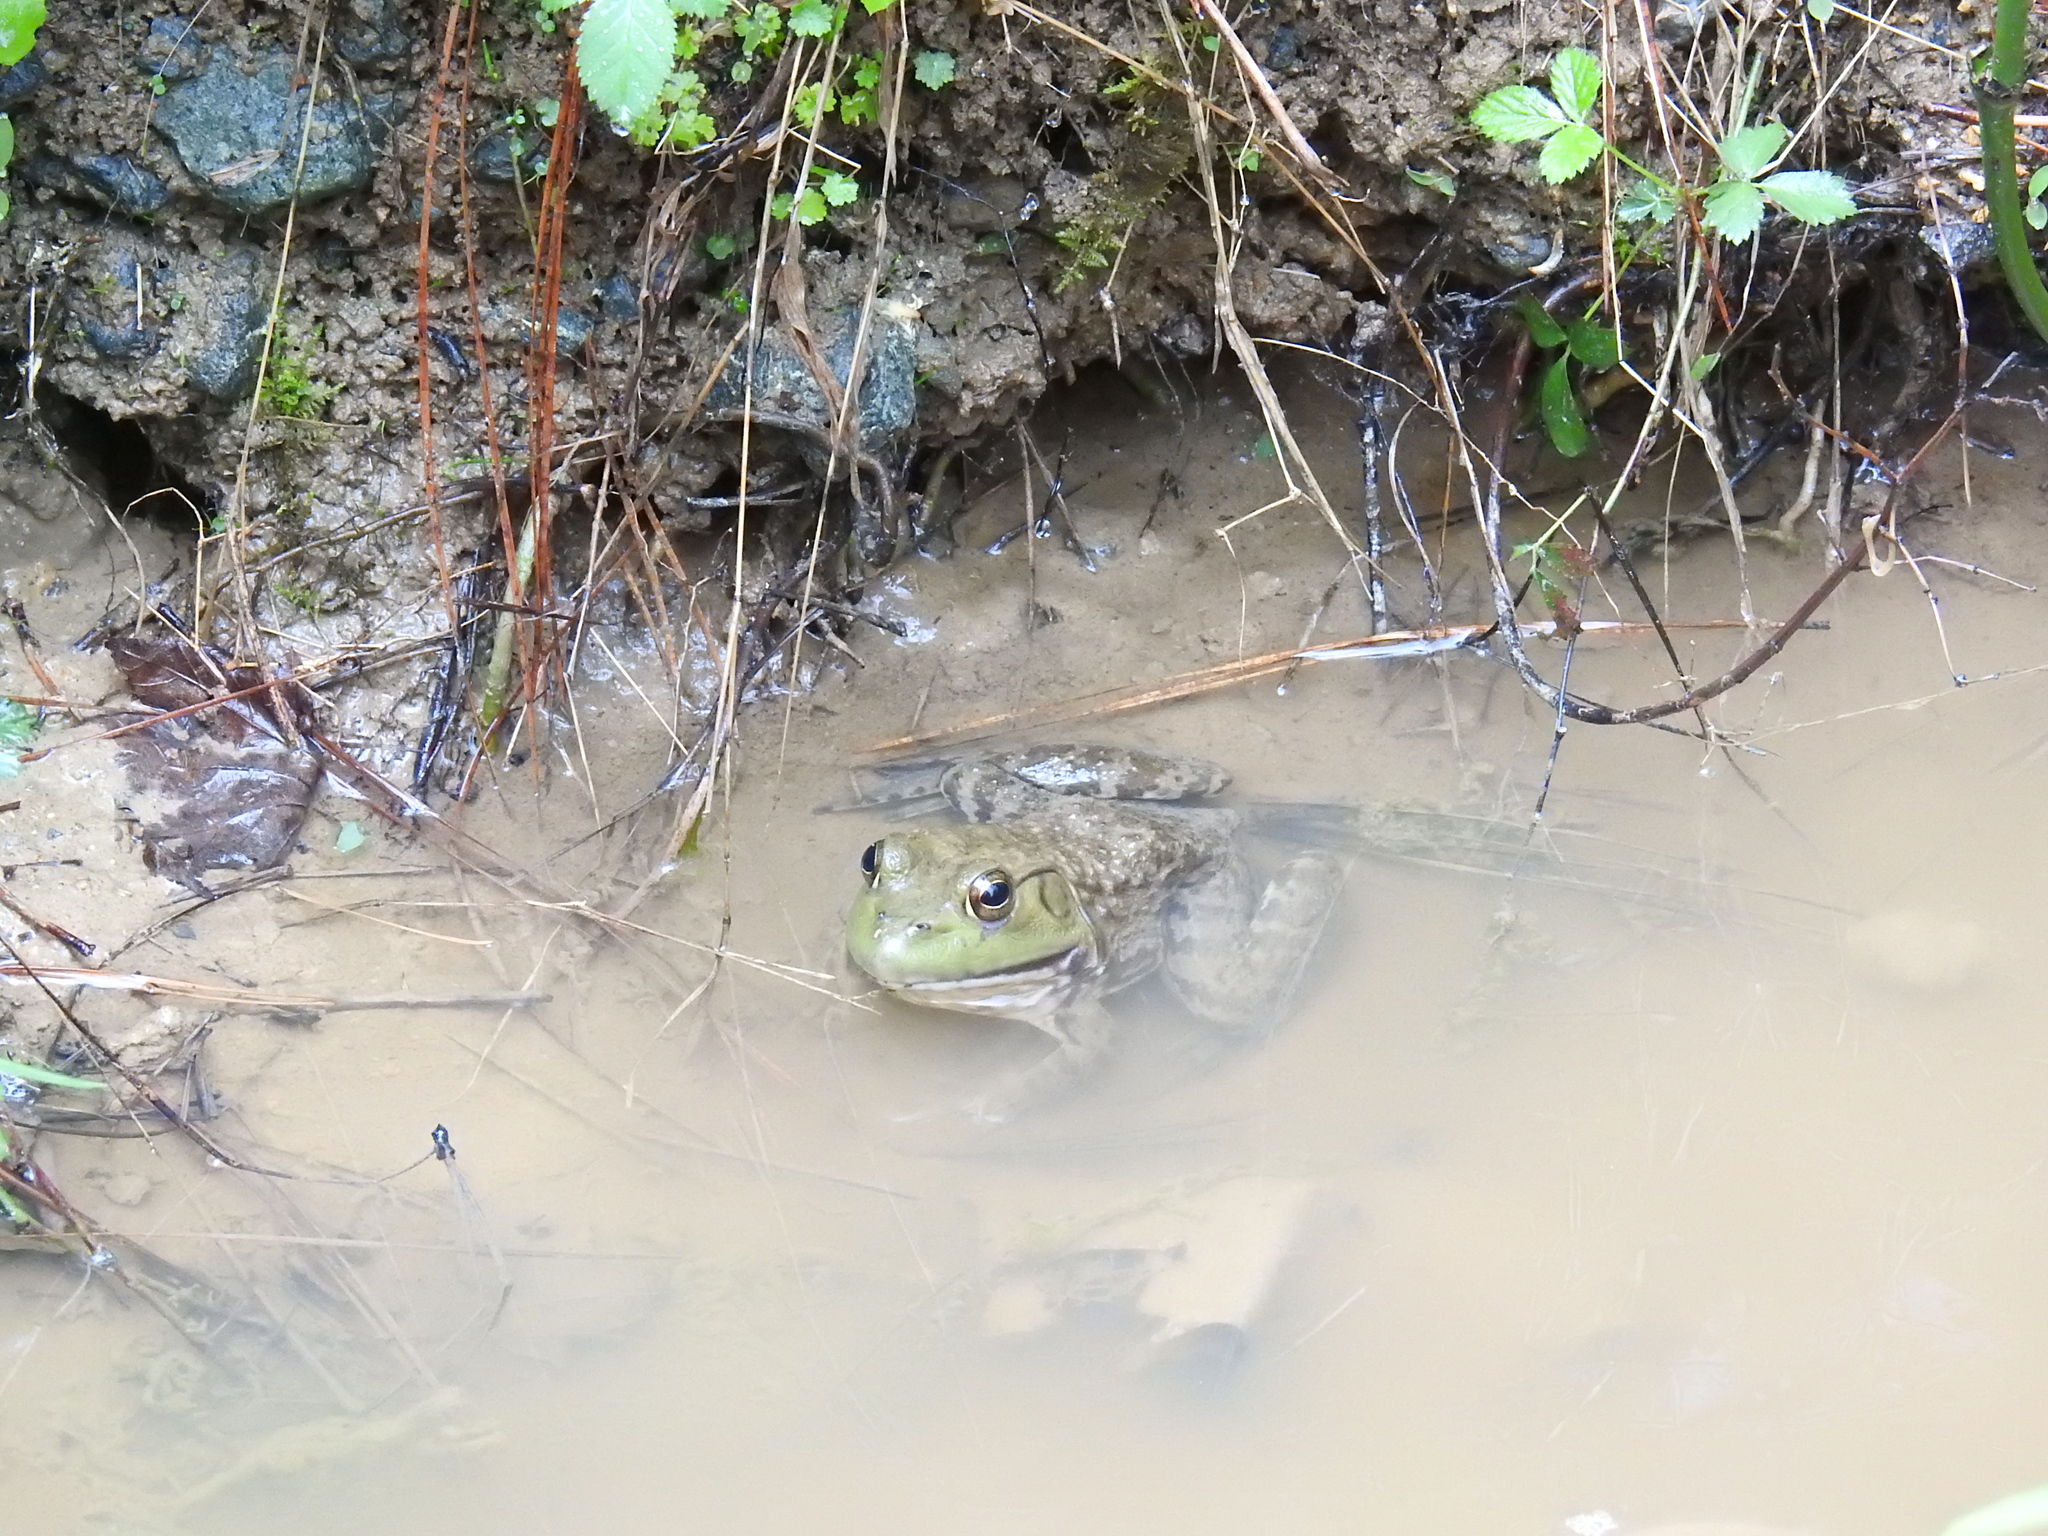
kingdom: Animalia
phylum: Chordata
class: Amphibia
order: Anura
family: Ranidae
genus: Lithobates
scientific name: Lithobates catesbeianus
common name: American bullfrog
